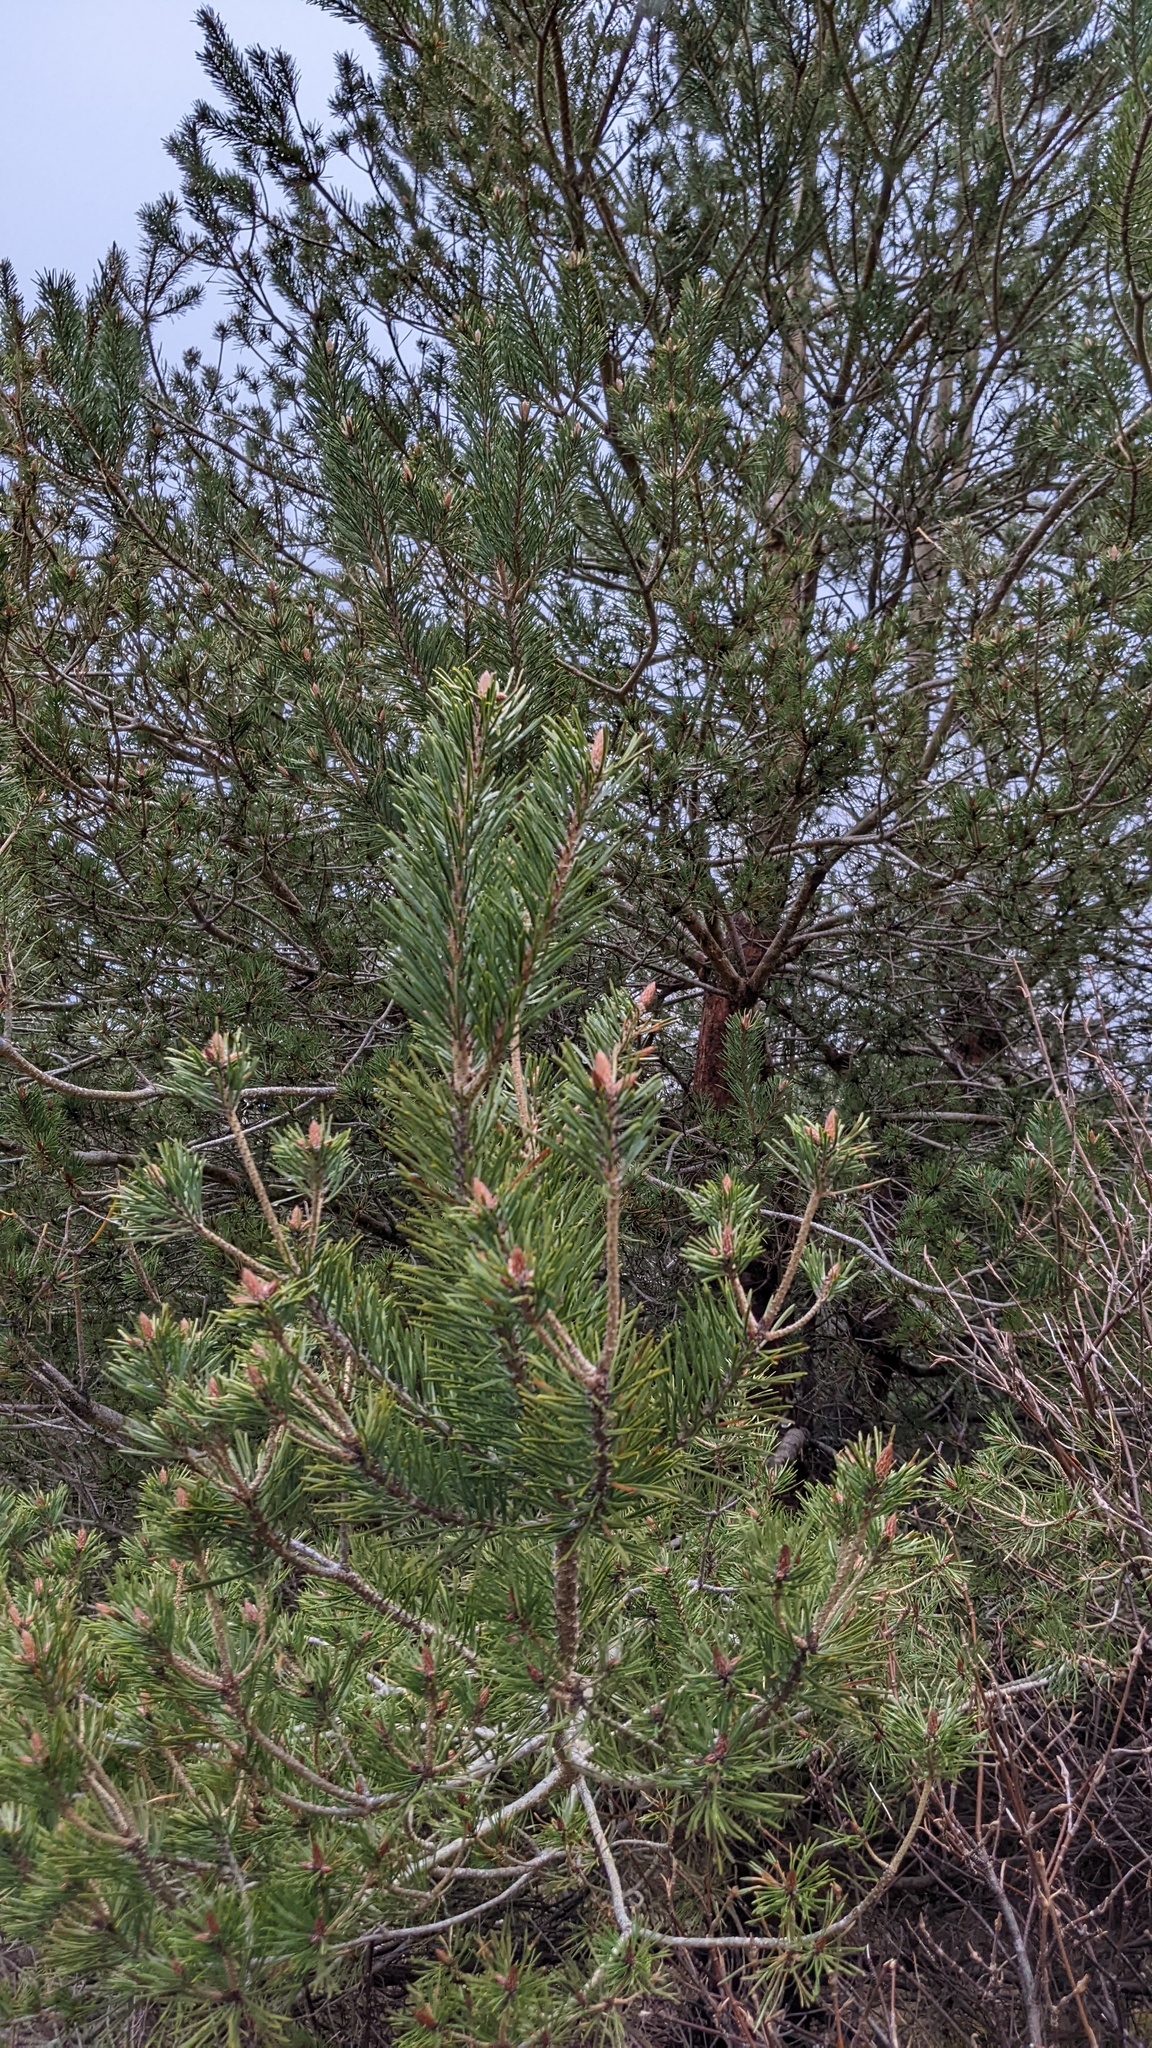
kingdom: Plantae
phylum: Tracheophyta
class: Pinopsida
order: Pinales
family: Pinaceae
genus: Pinus
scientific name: Pinus sylvestris
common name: Scots pine
